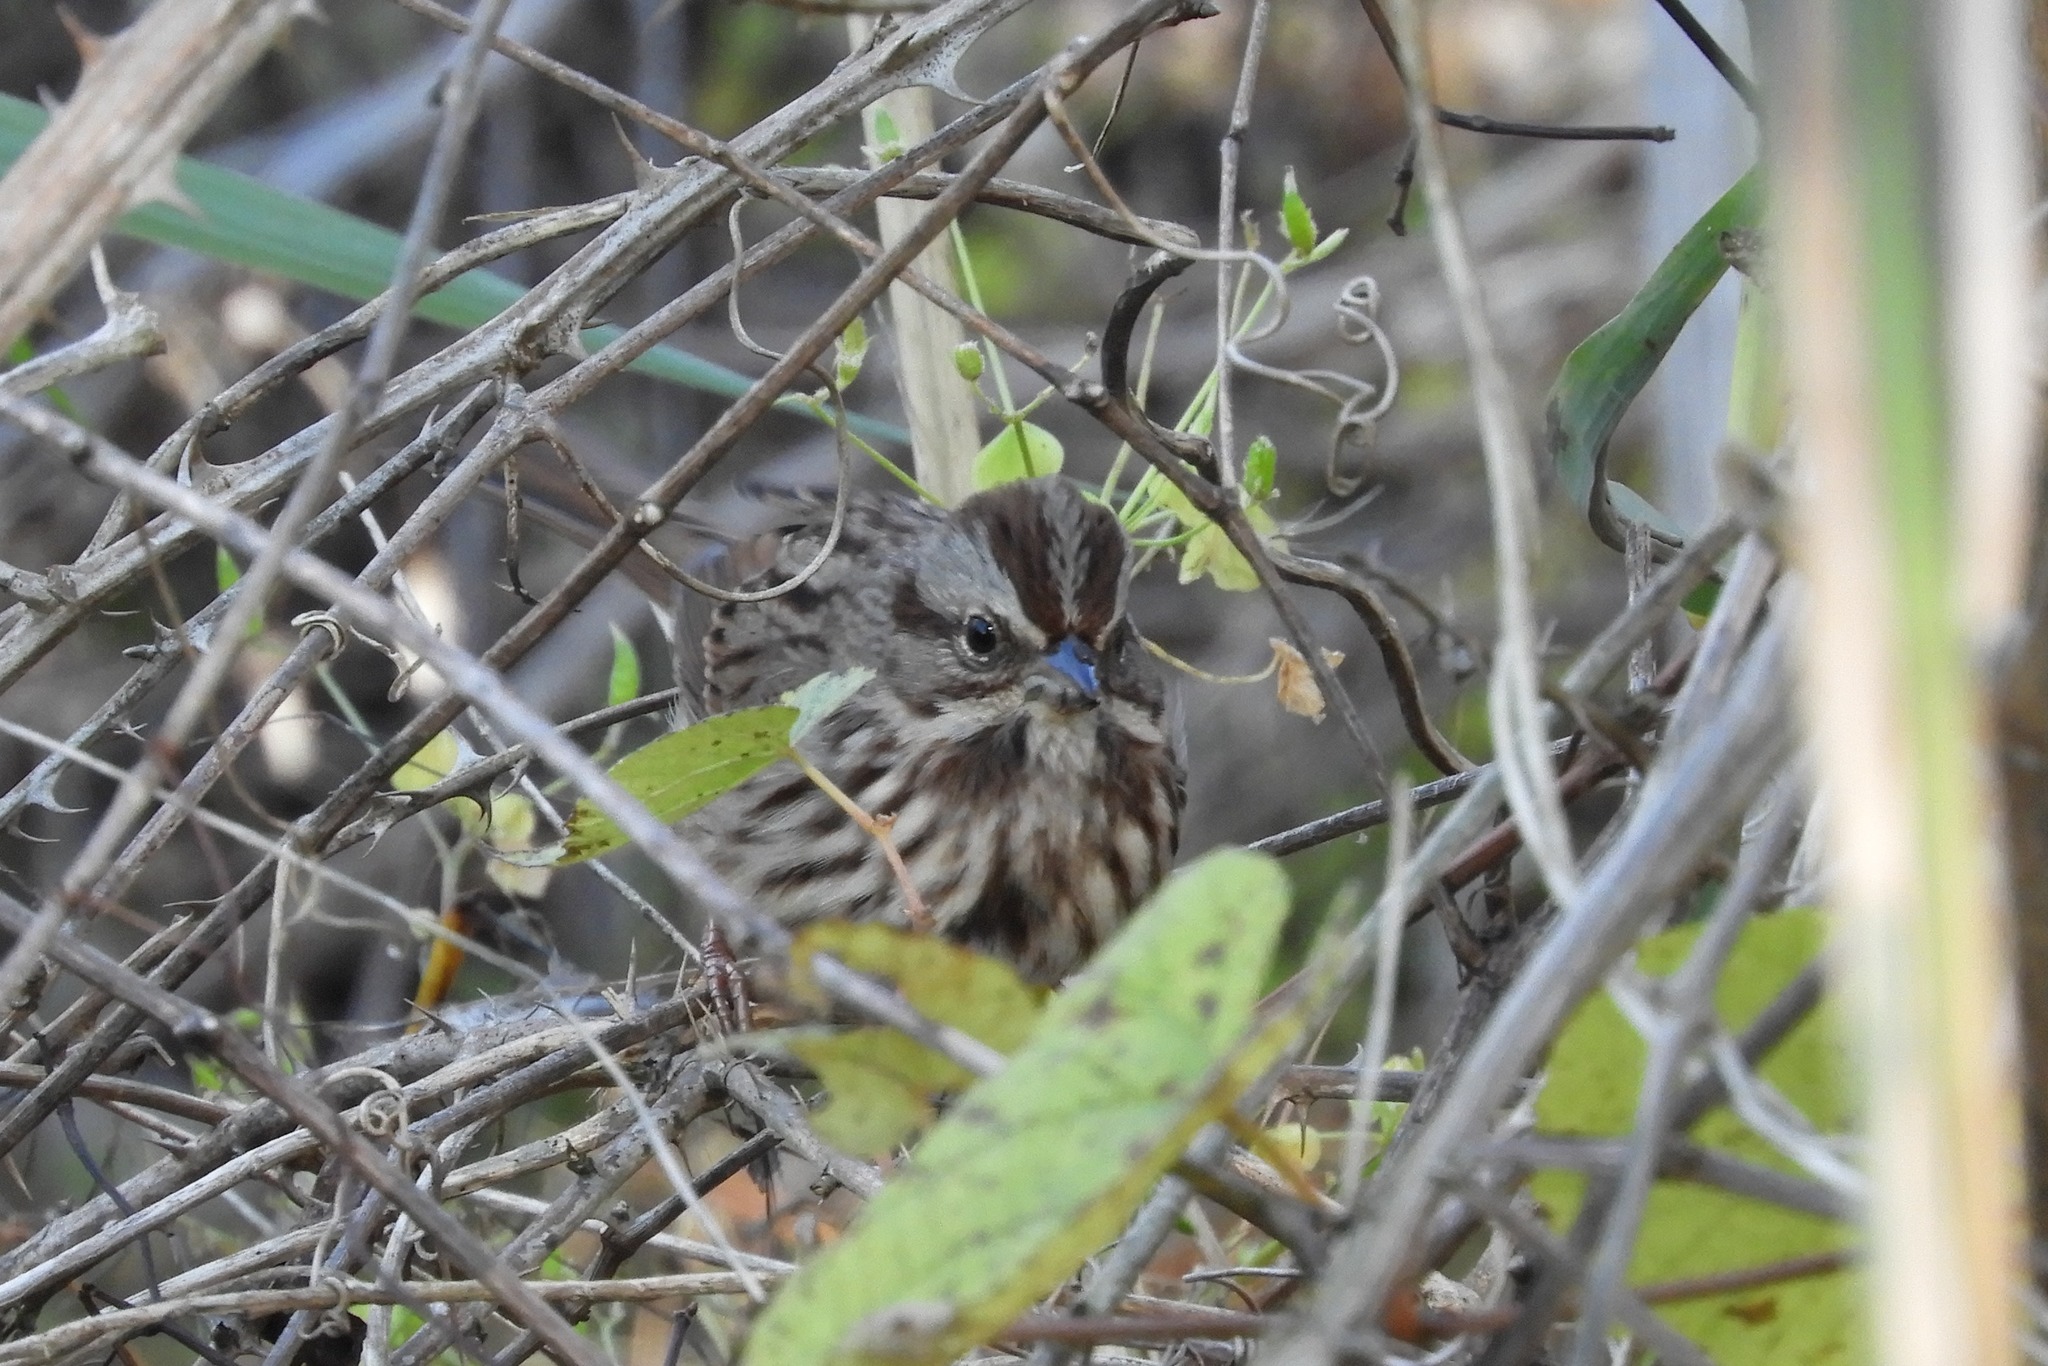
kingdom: Animalia
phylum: Chordata
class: Aves
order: Passeriformes
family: Passerellidae
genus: Melospiza
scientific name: Melospiza melodia
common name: Song sparrow
